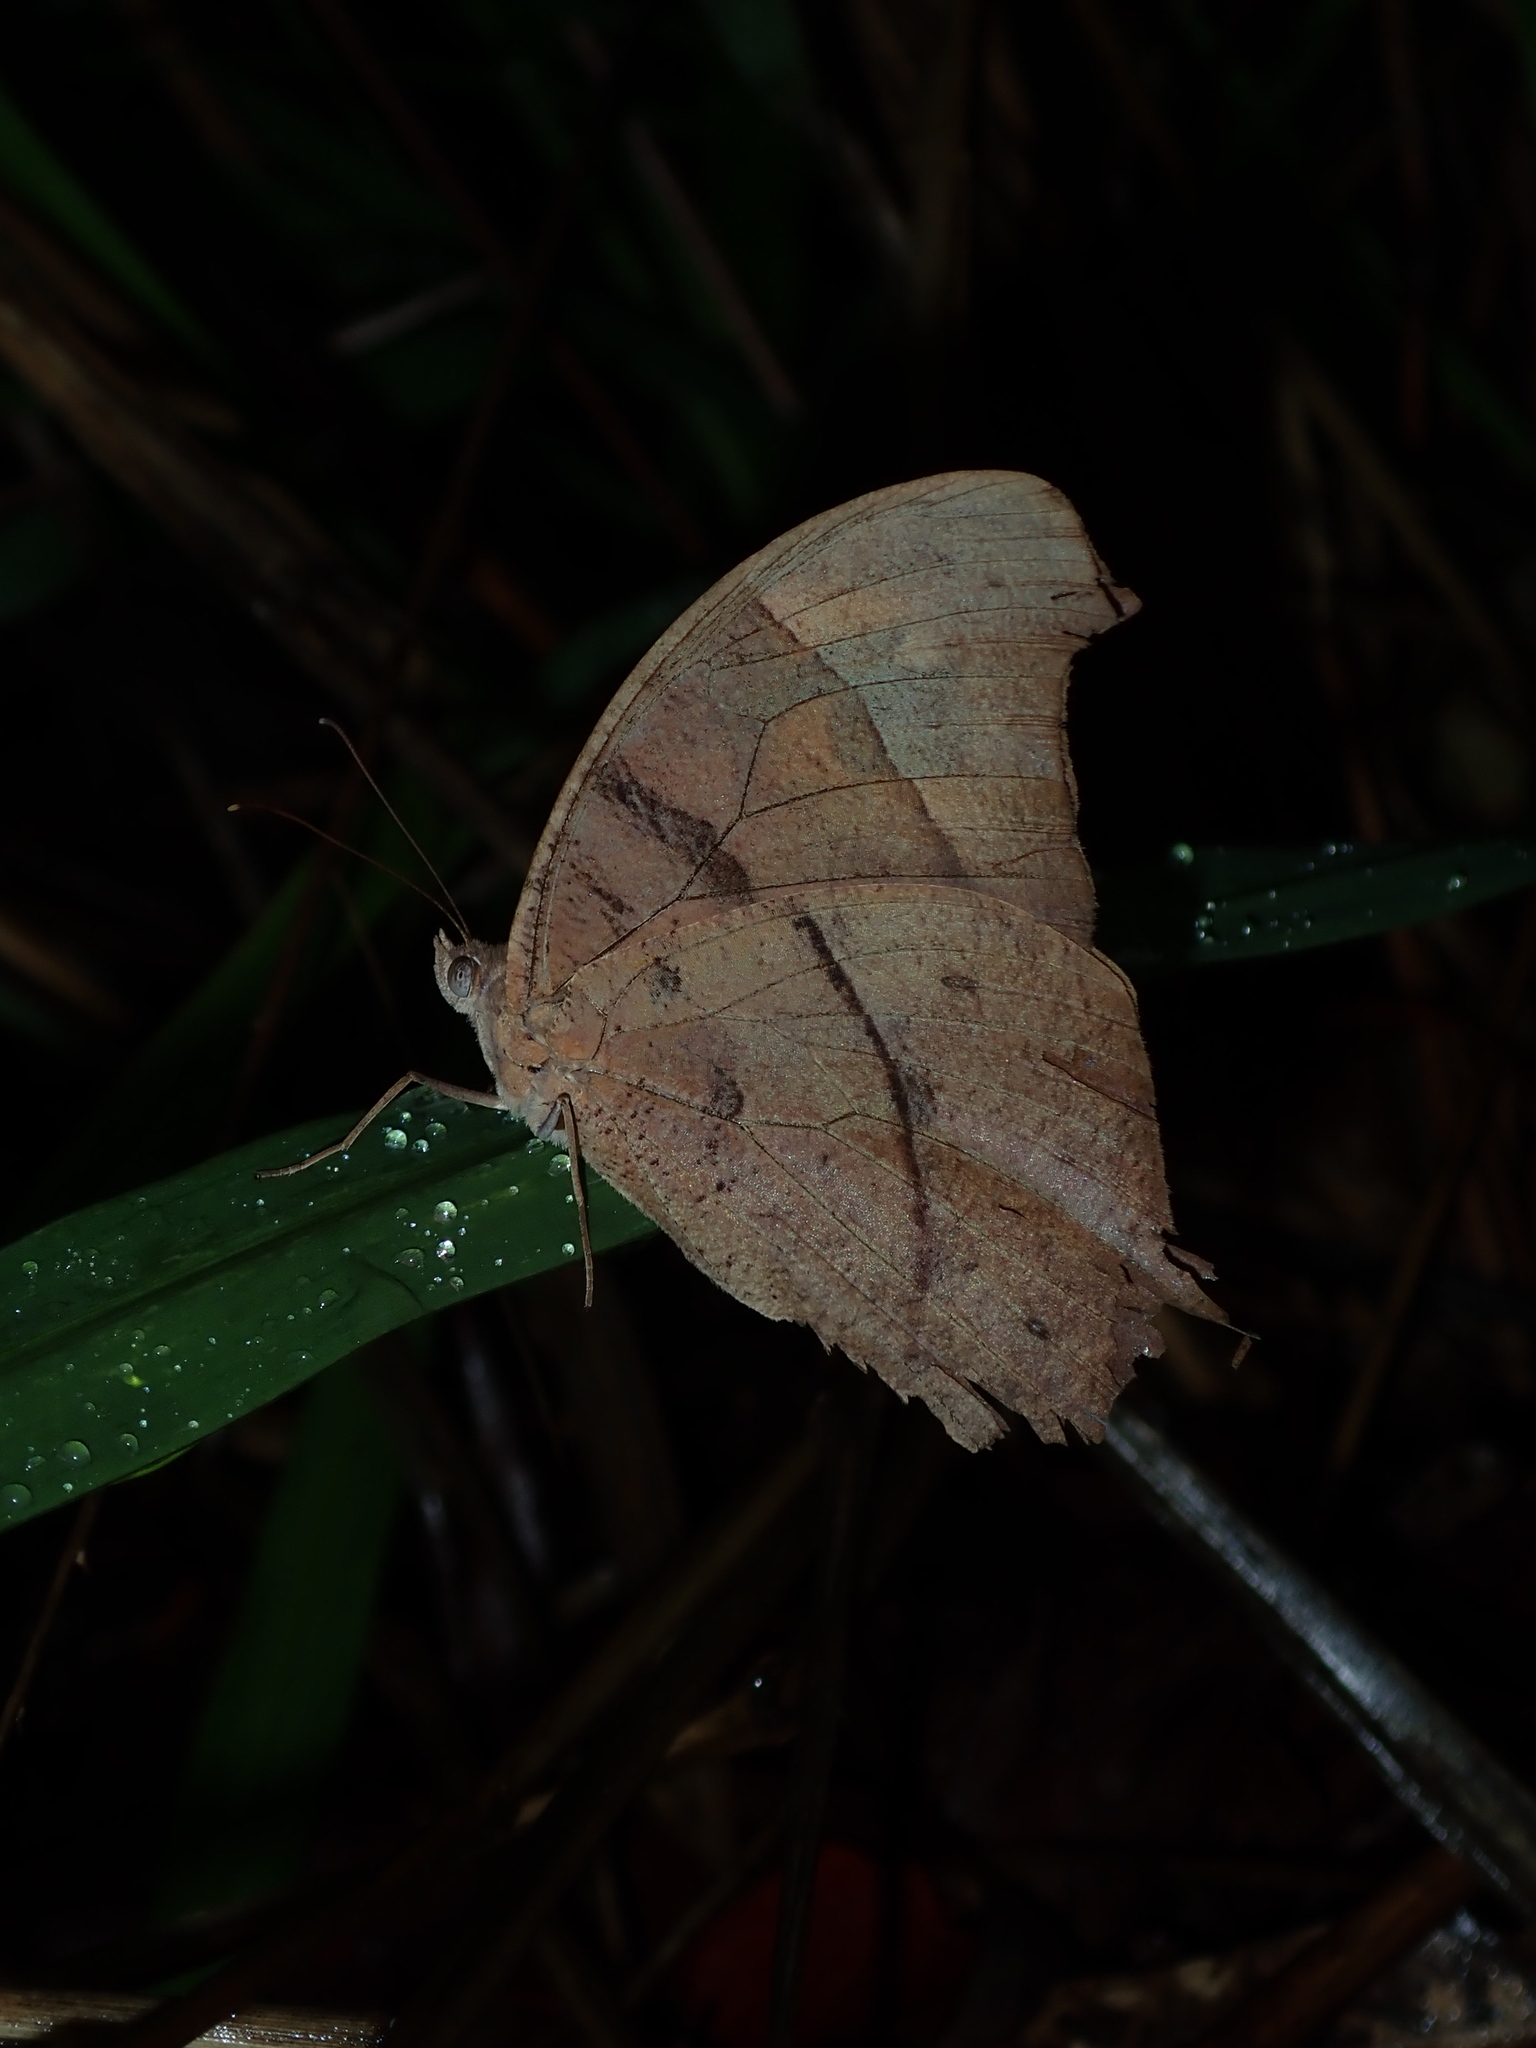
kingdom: Animalia
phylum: Arthropoda
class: Insecta
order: Lepidoptera
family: Nymphalidae
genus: Melanitis
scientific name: Melanitis leda
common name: Twilight brown
